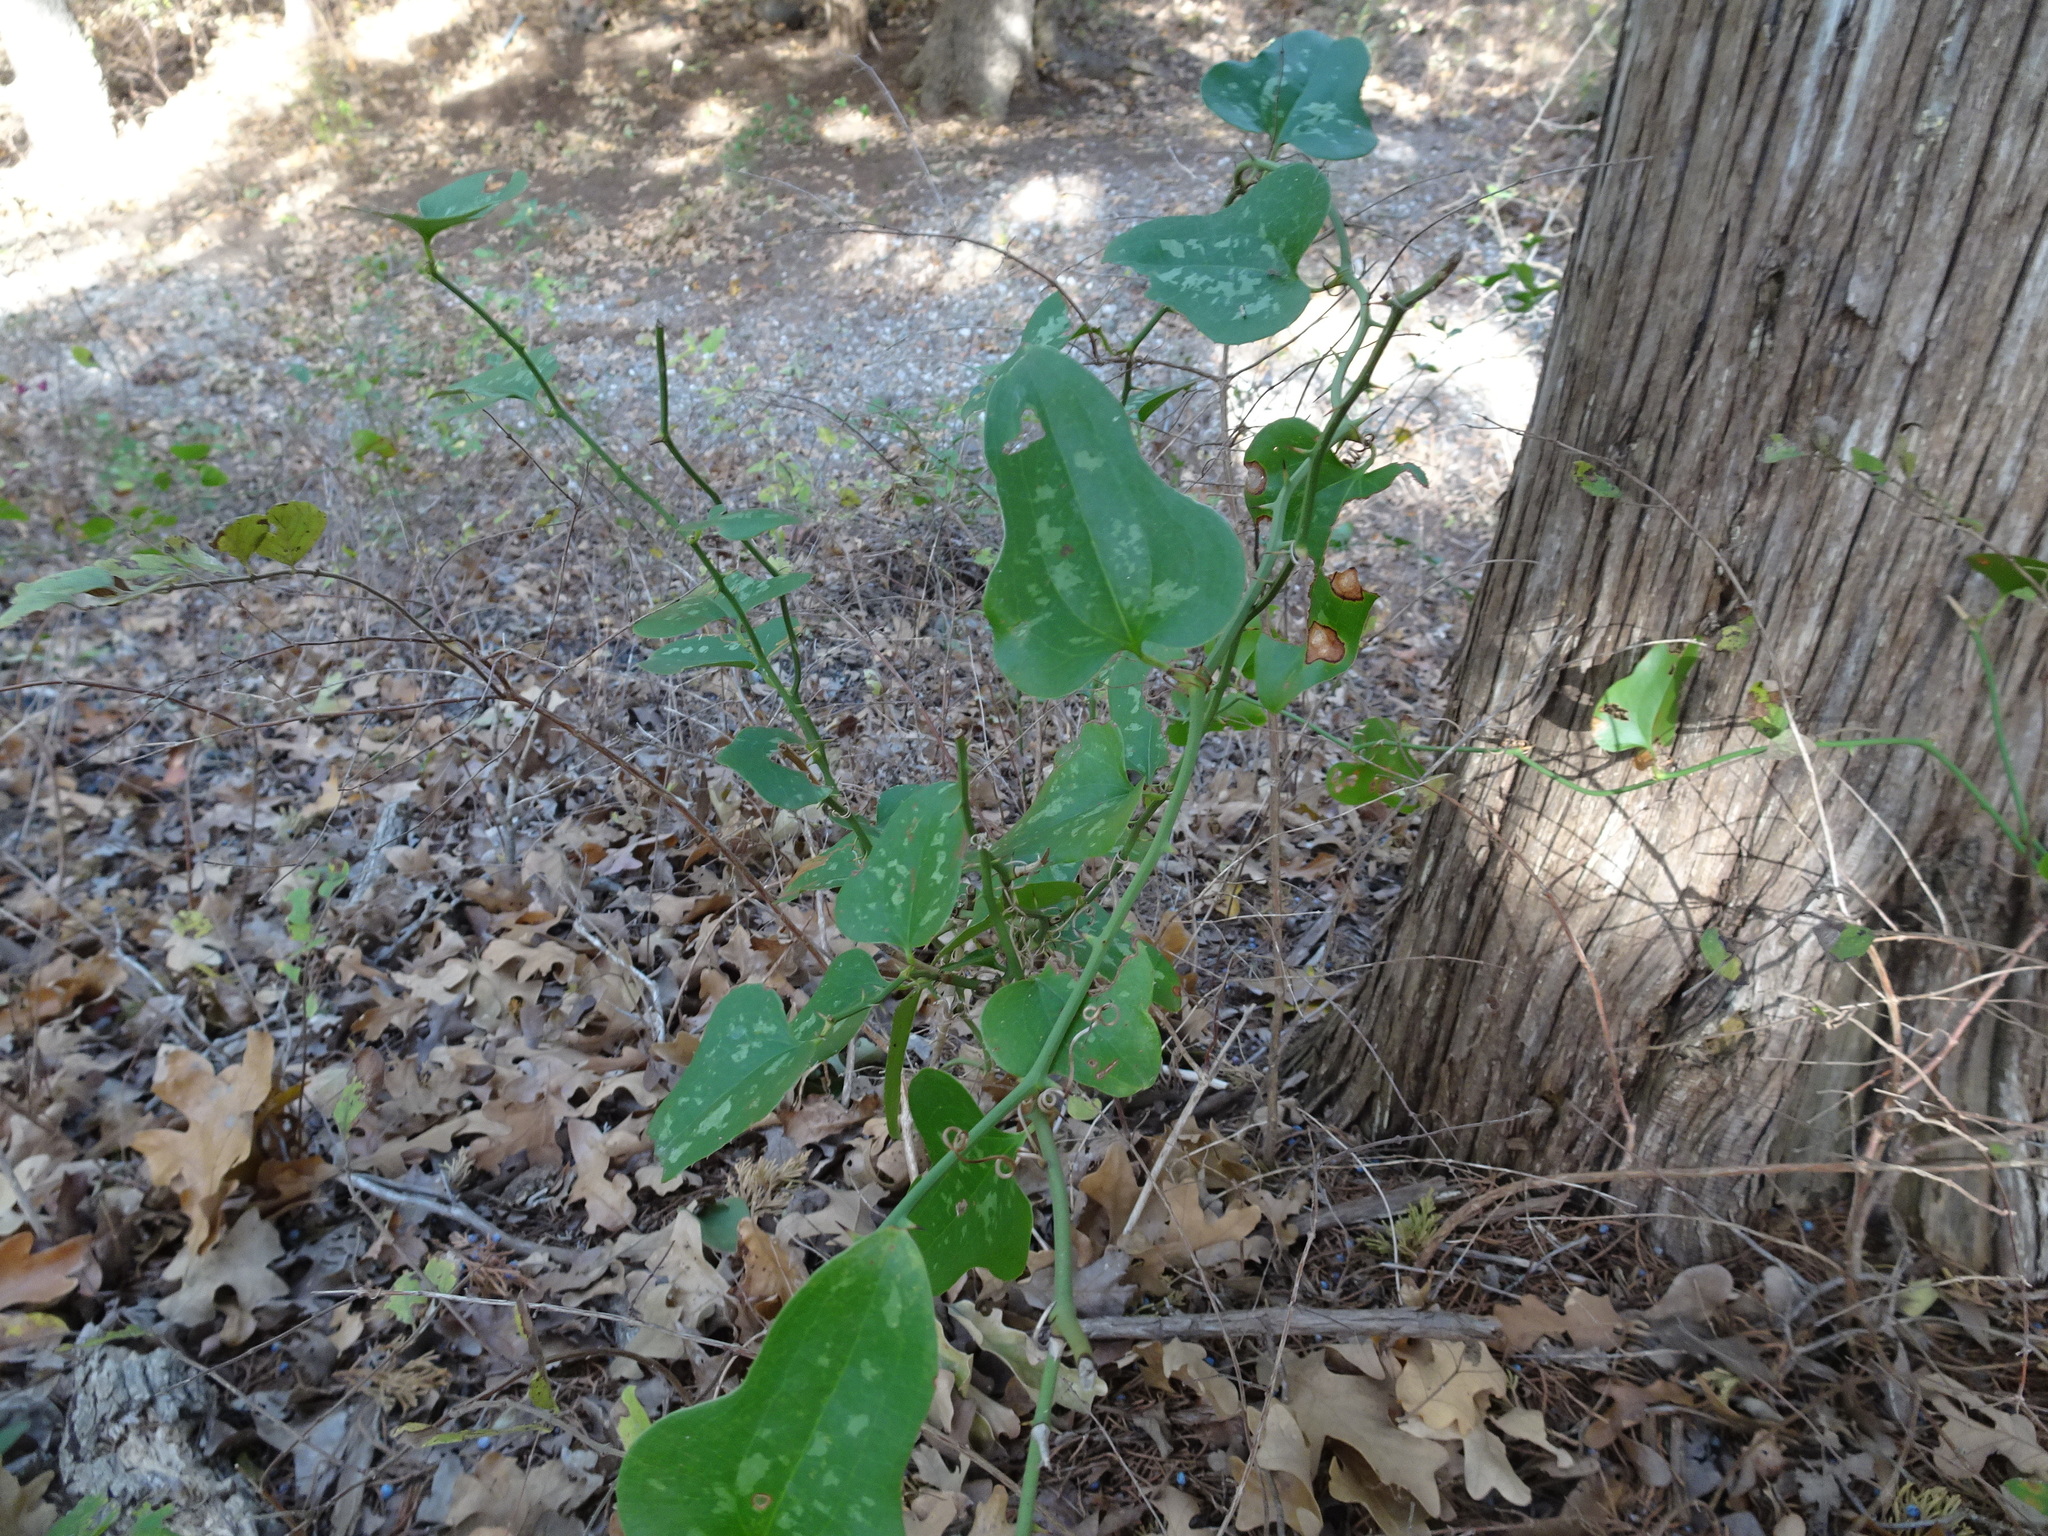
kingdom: Plantae
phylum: Tracheophyta
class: Liliopsida
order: Liliales
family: Smilacaceae
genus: Smilax
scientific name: Smilax bona-nox
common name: Catbrier
